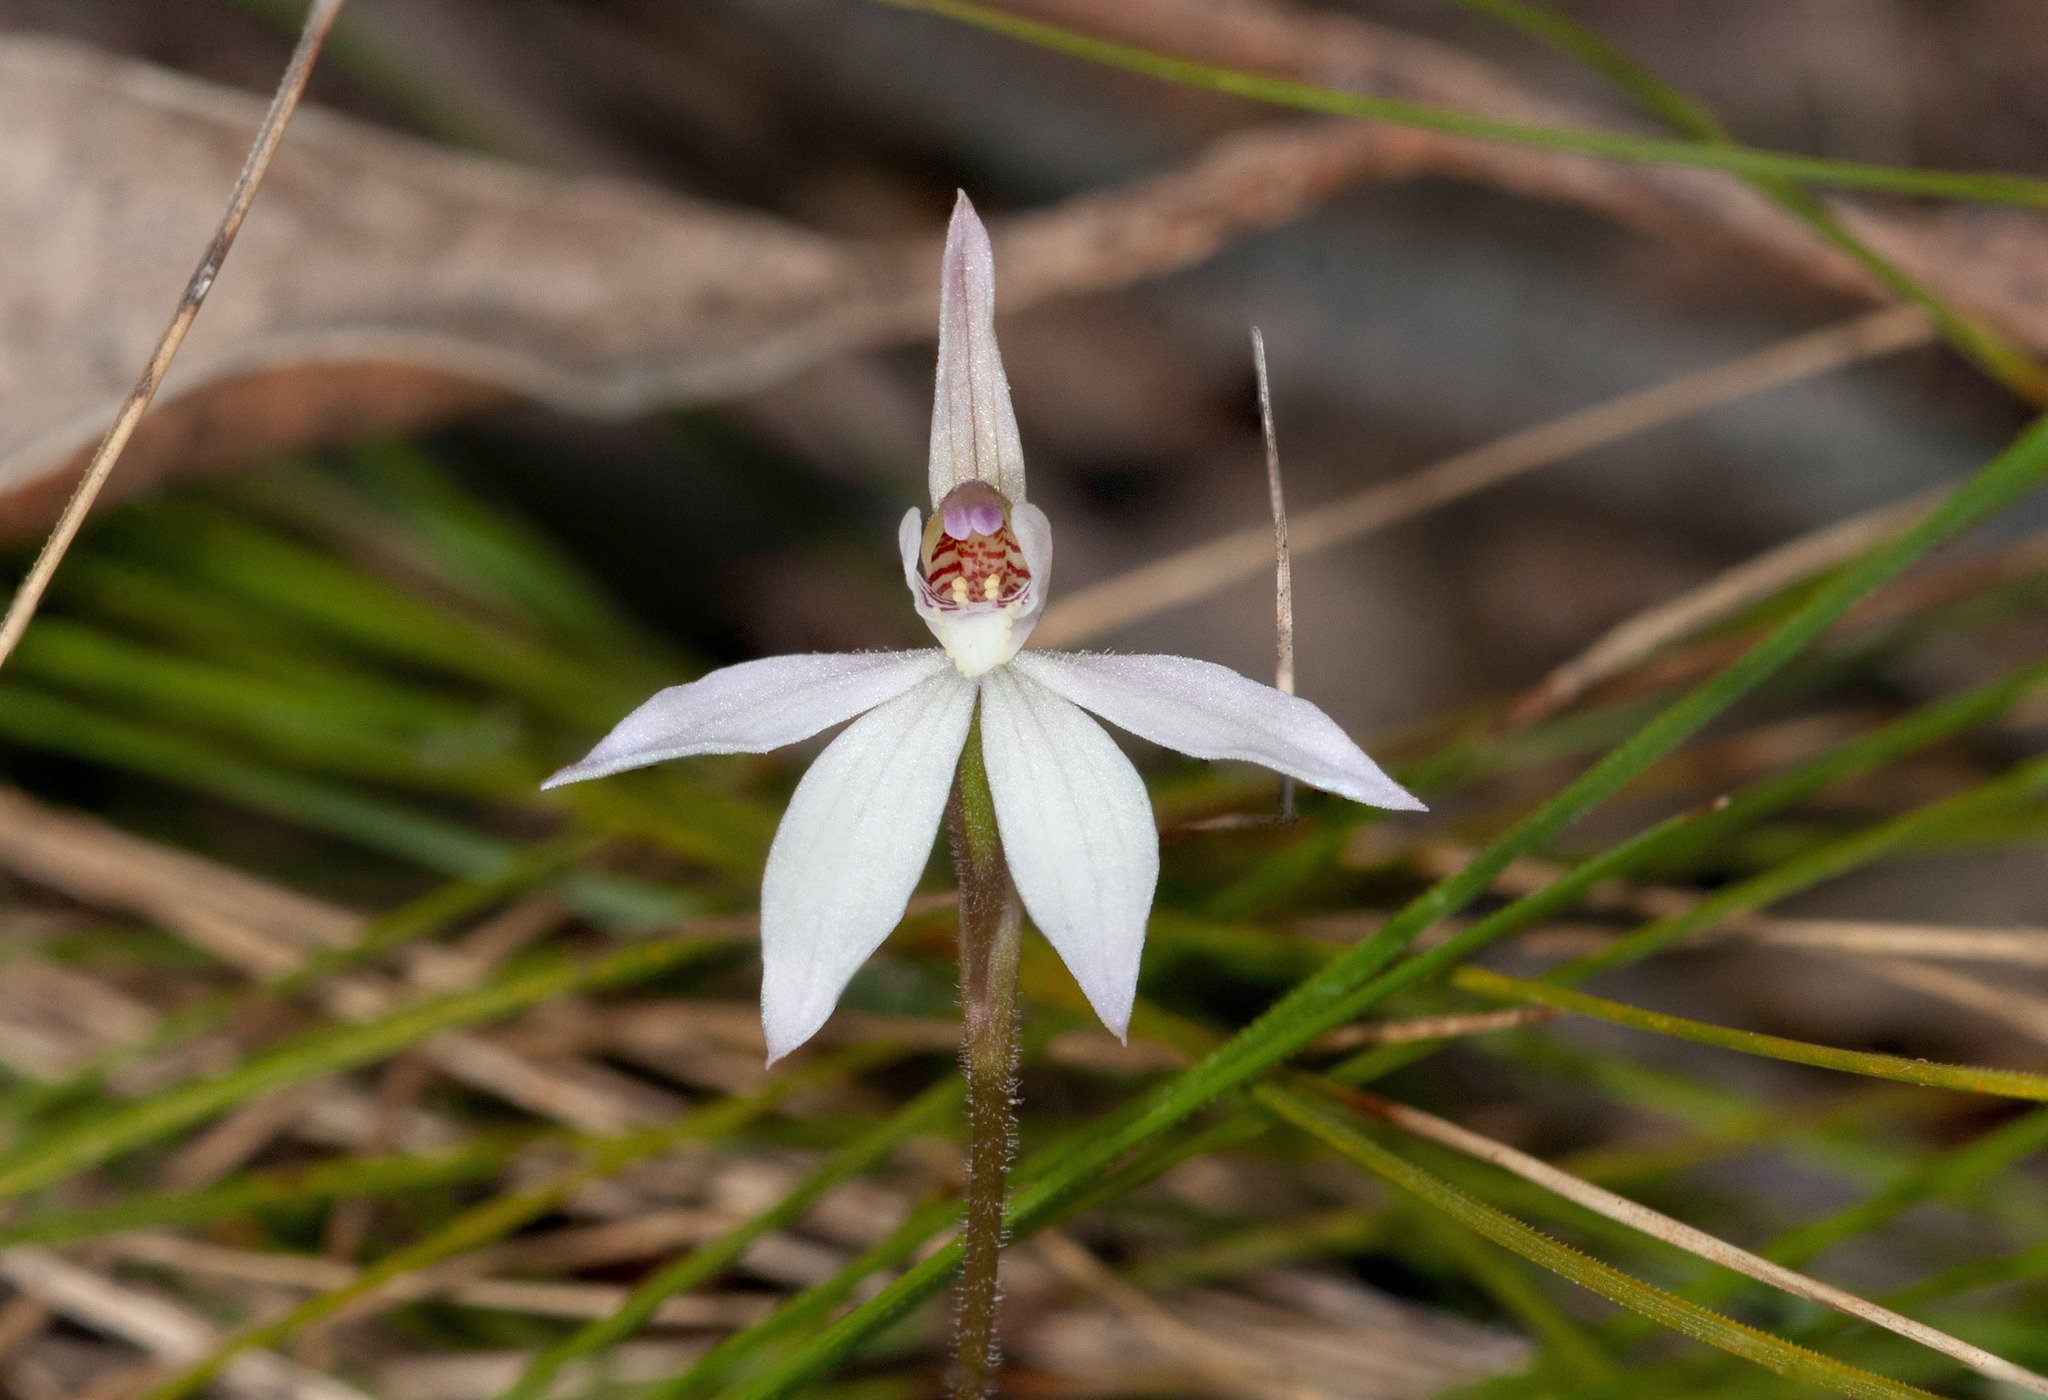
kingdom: Plantae
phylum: Tracheophyta
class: Liliopsida
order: Asparagales
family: Orchidaceae
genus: Caladenia
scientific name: Caladenia carnea
